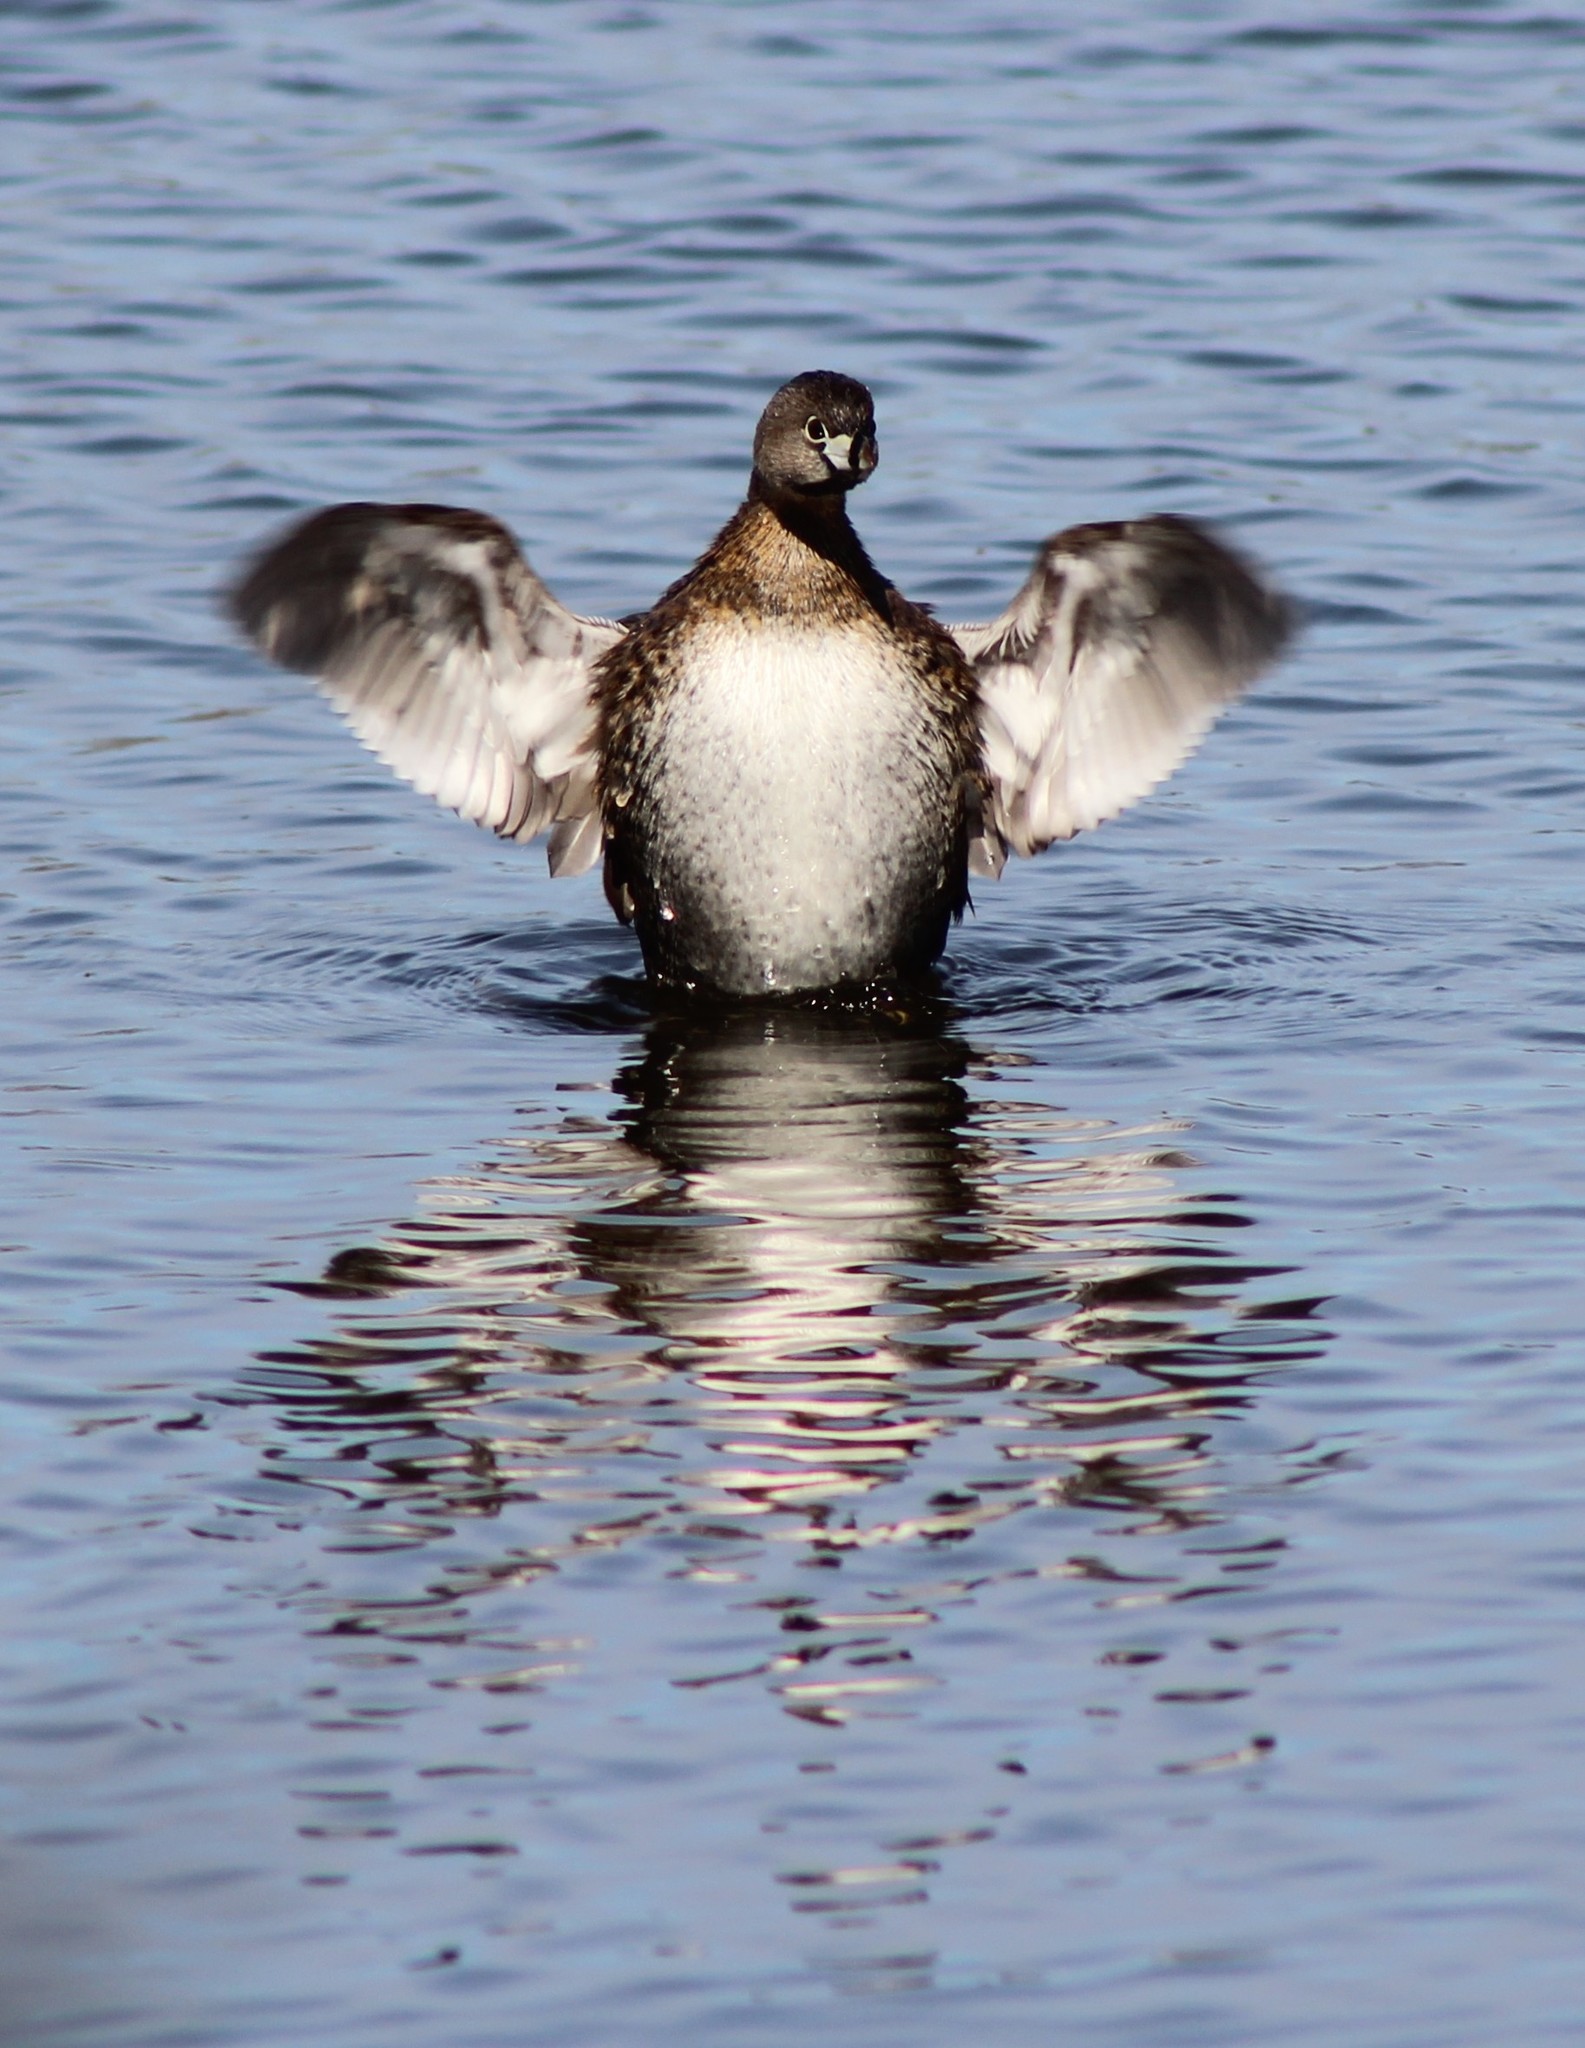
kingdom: Animalia
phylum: Chordata
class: Aves
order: Podicipediformes
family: Podicipedidae
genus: Podilymbus
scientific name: Podilymbus podiceps
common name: Pied-billed grebe
